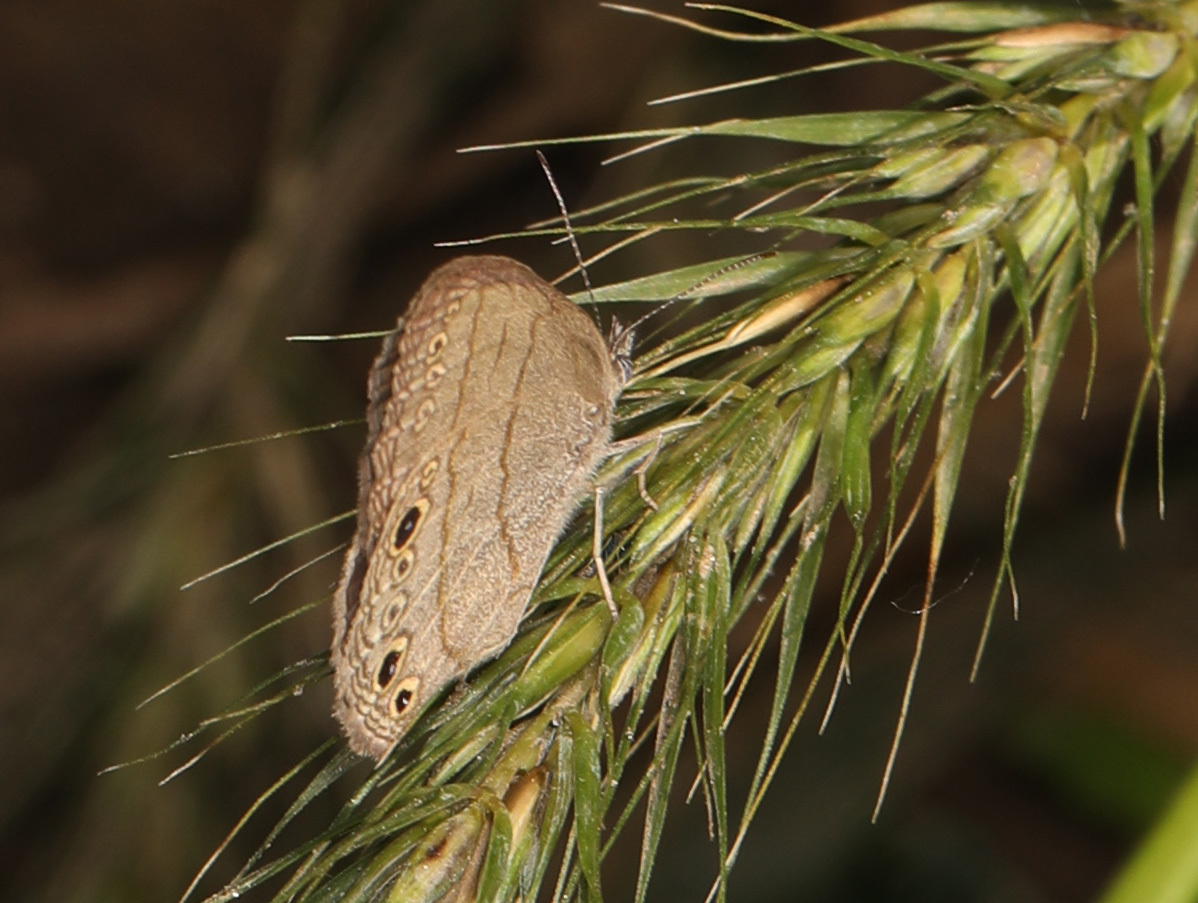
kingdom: Animalia
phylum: Arthropoda
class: Insecta
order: Lepidoptera
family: Nymphalidae
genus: Hermeuptychia
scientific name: Hermeuptychia hermes
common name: Hermes satyr
